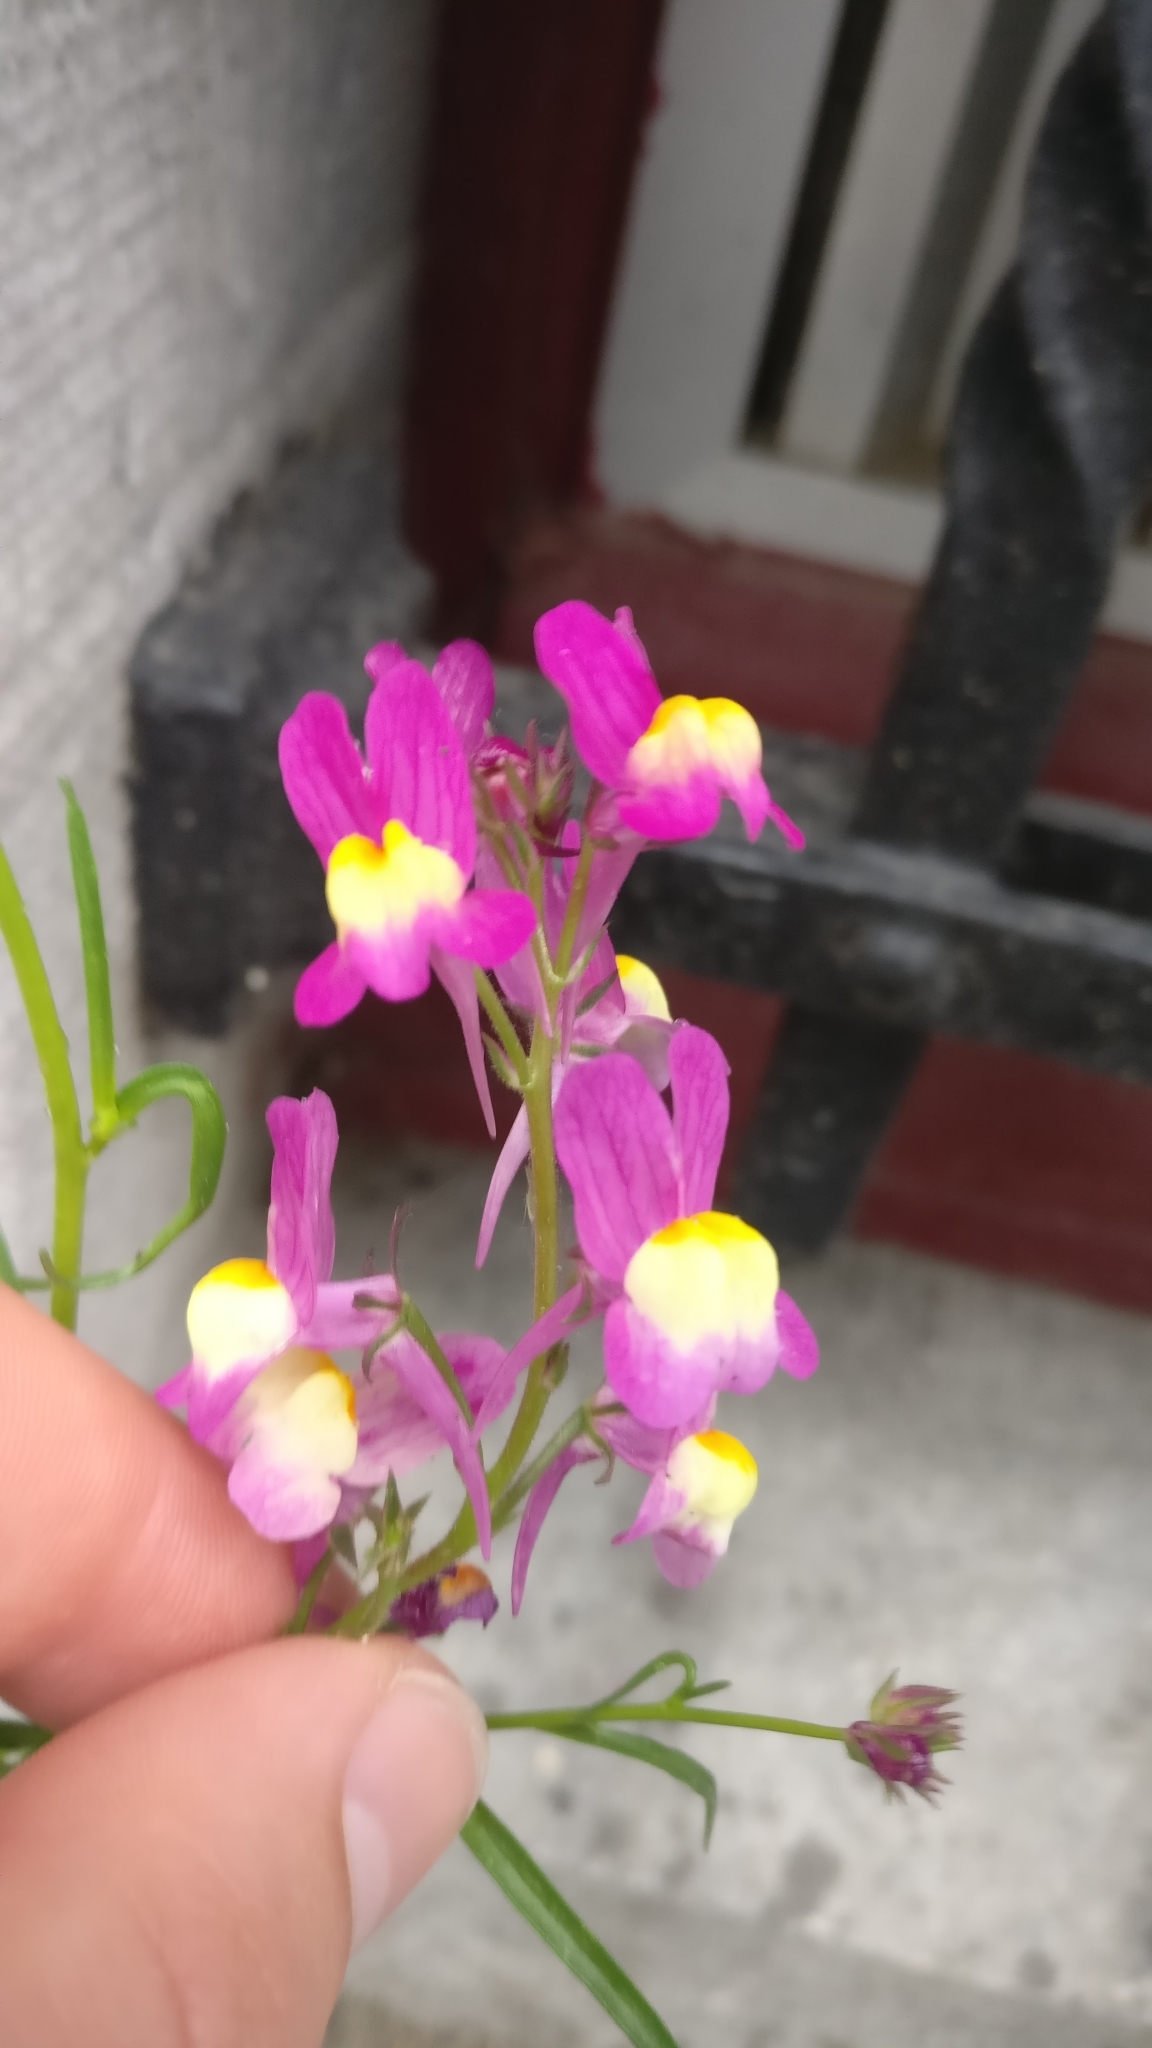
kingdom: Plantae
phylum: Tracheophyta
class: Magnoliopsida
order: Lamiales
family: Plantaginaceae
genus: Linaria
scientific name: Linaria maroccana
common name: Moroccan toadflax
